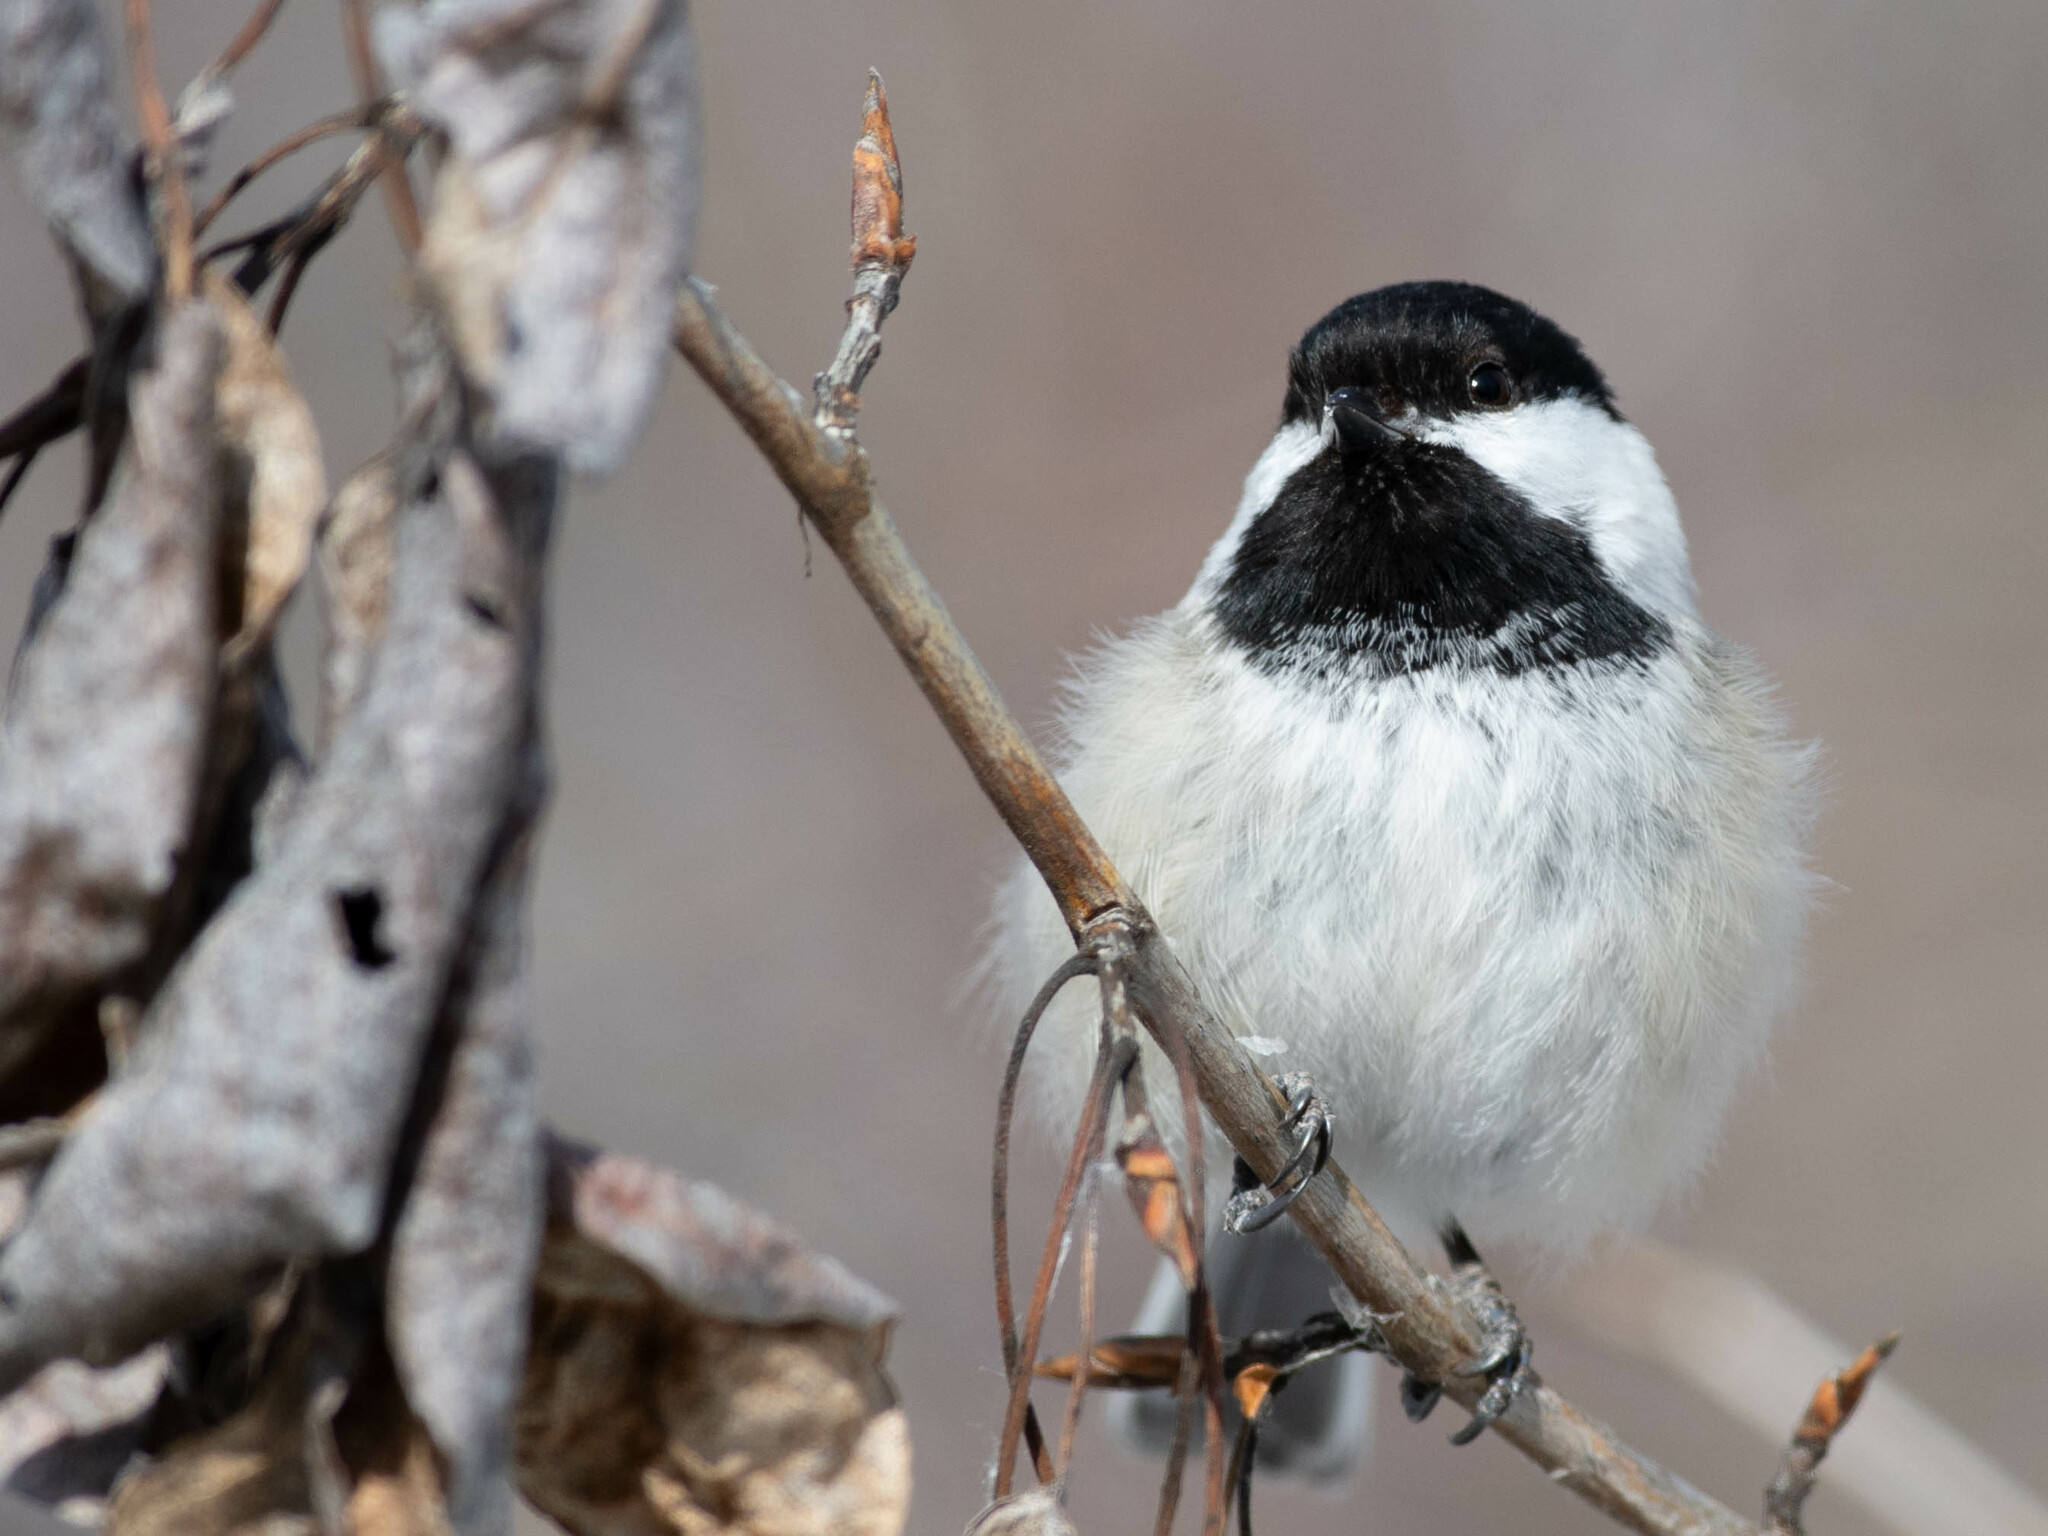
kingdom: Animalia
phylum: Chordata
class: Aves
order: Passeriformes
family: Paridae
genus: Poecile
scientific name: Poecile atricapillus
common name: Black-capped chickadee
